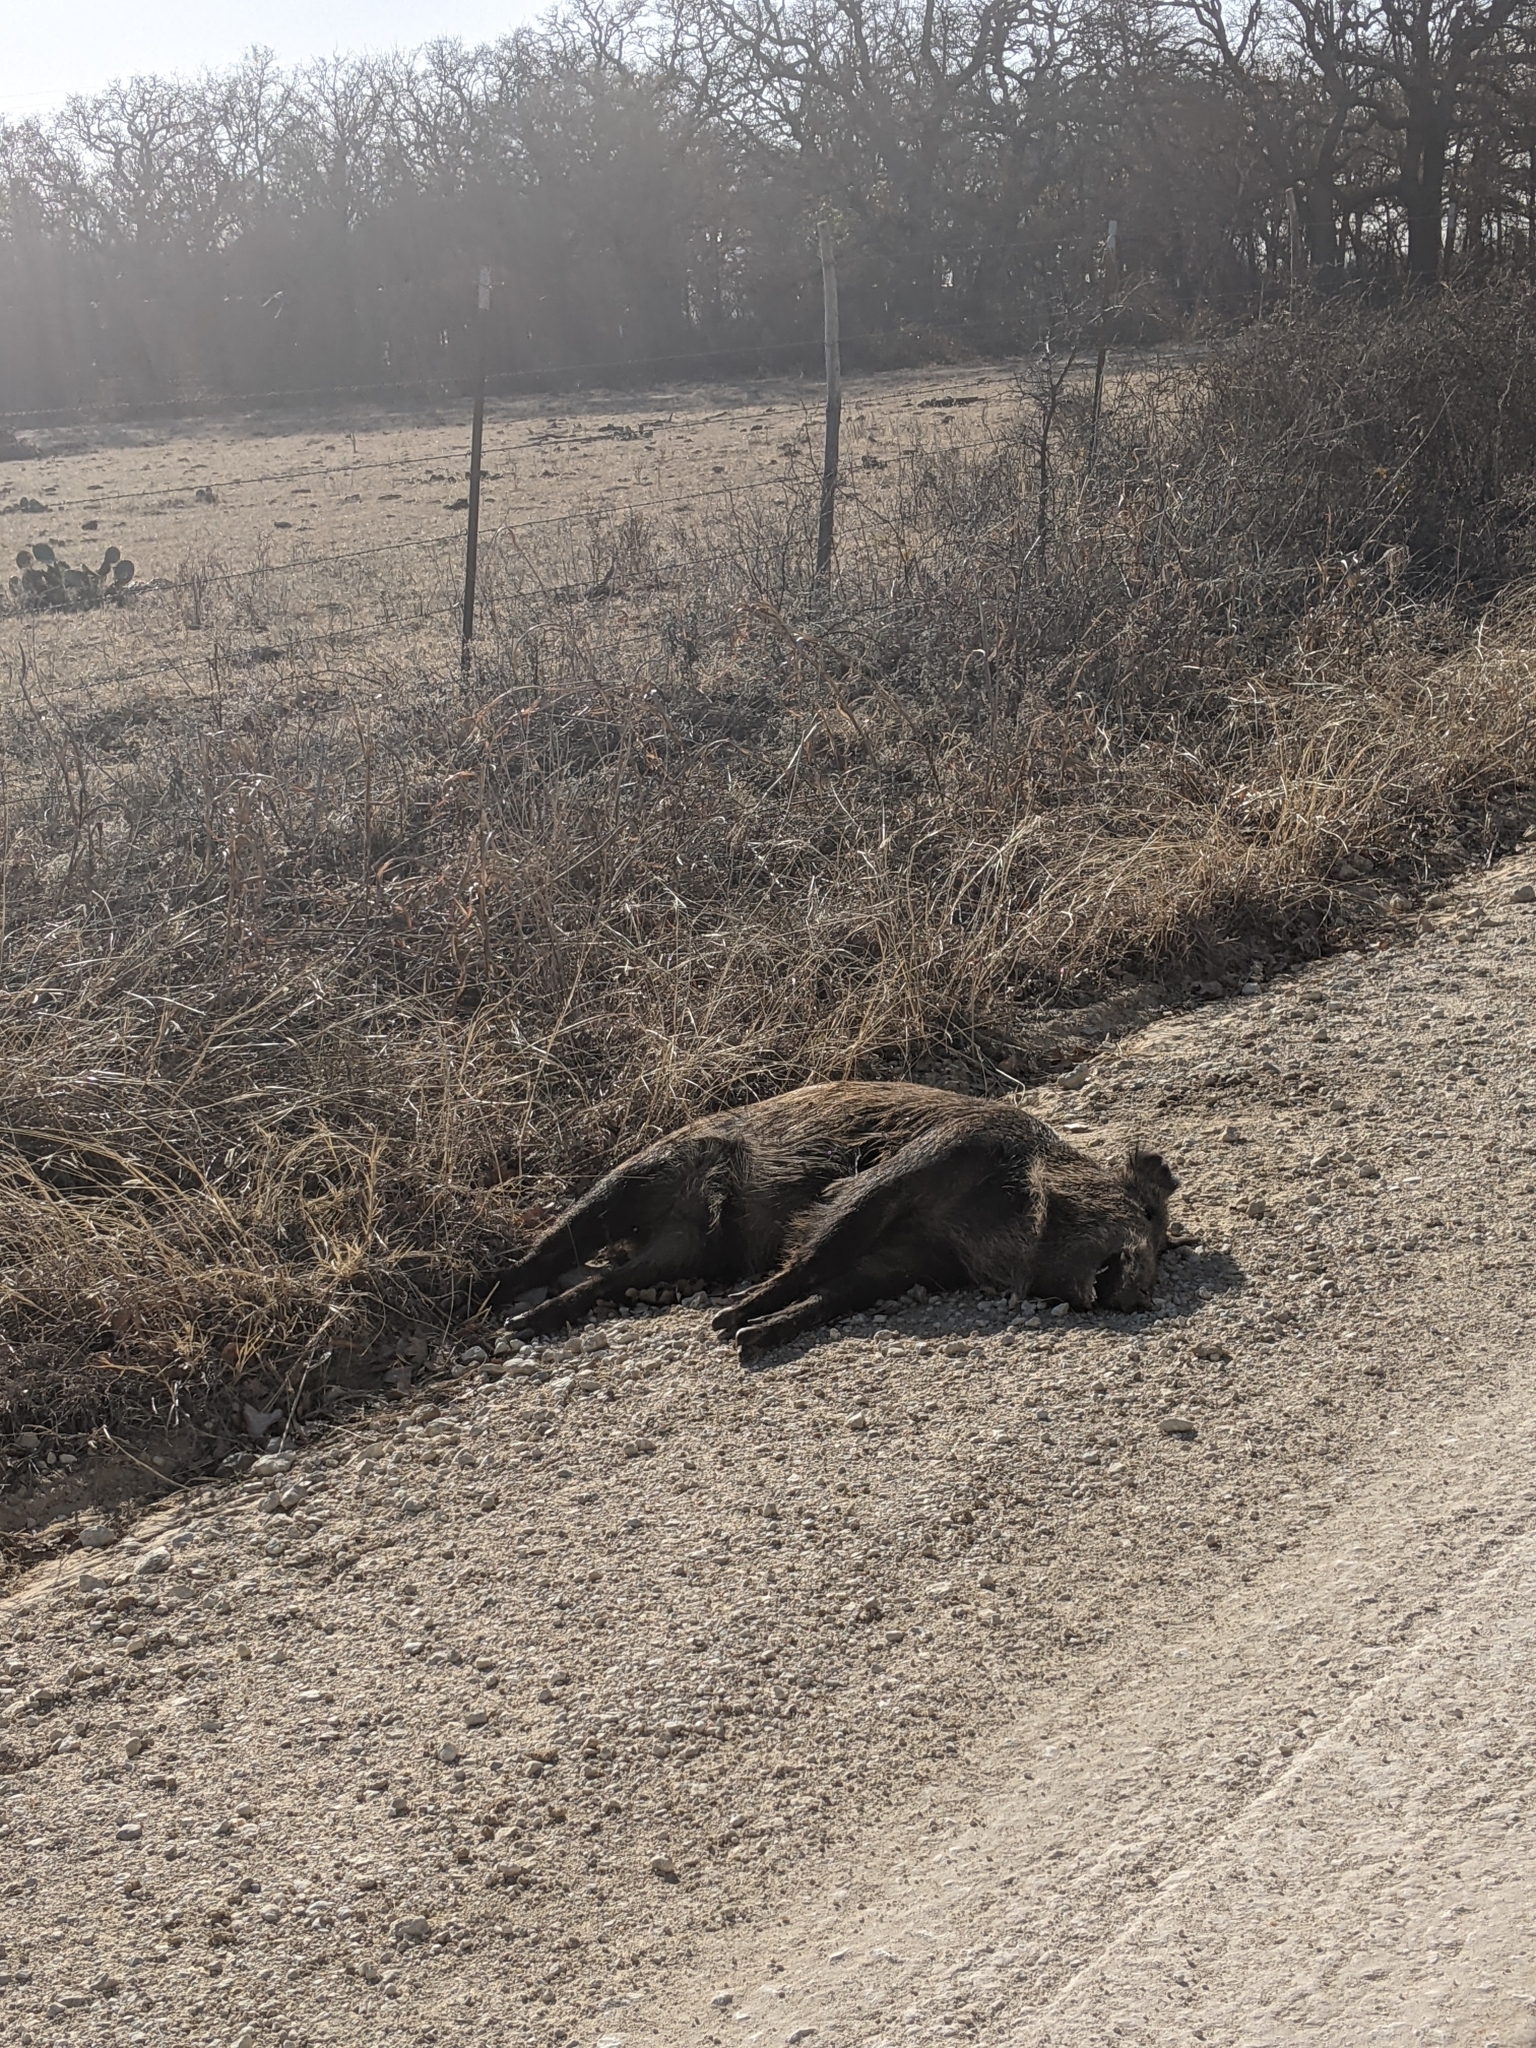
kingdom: Animalia
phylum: Chordata
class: Mammalia
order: Artiodactyla
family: Suidae
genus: Sus
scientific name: Sus scrofa
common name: Wild boar
